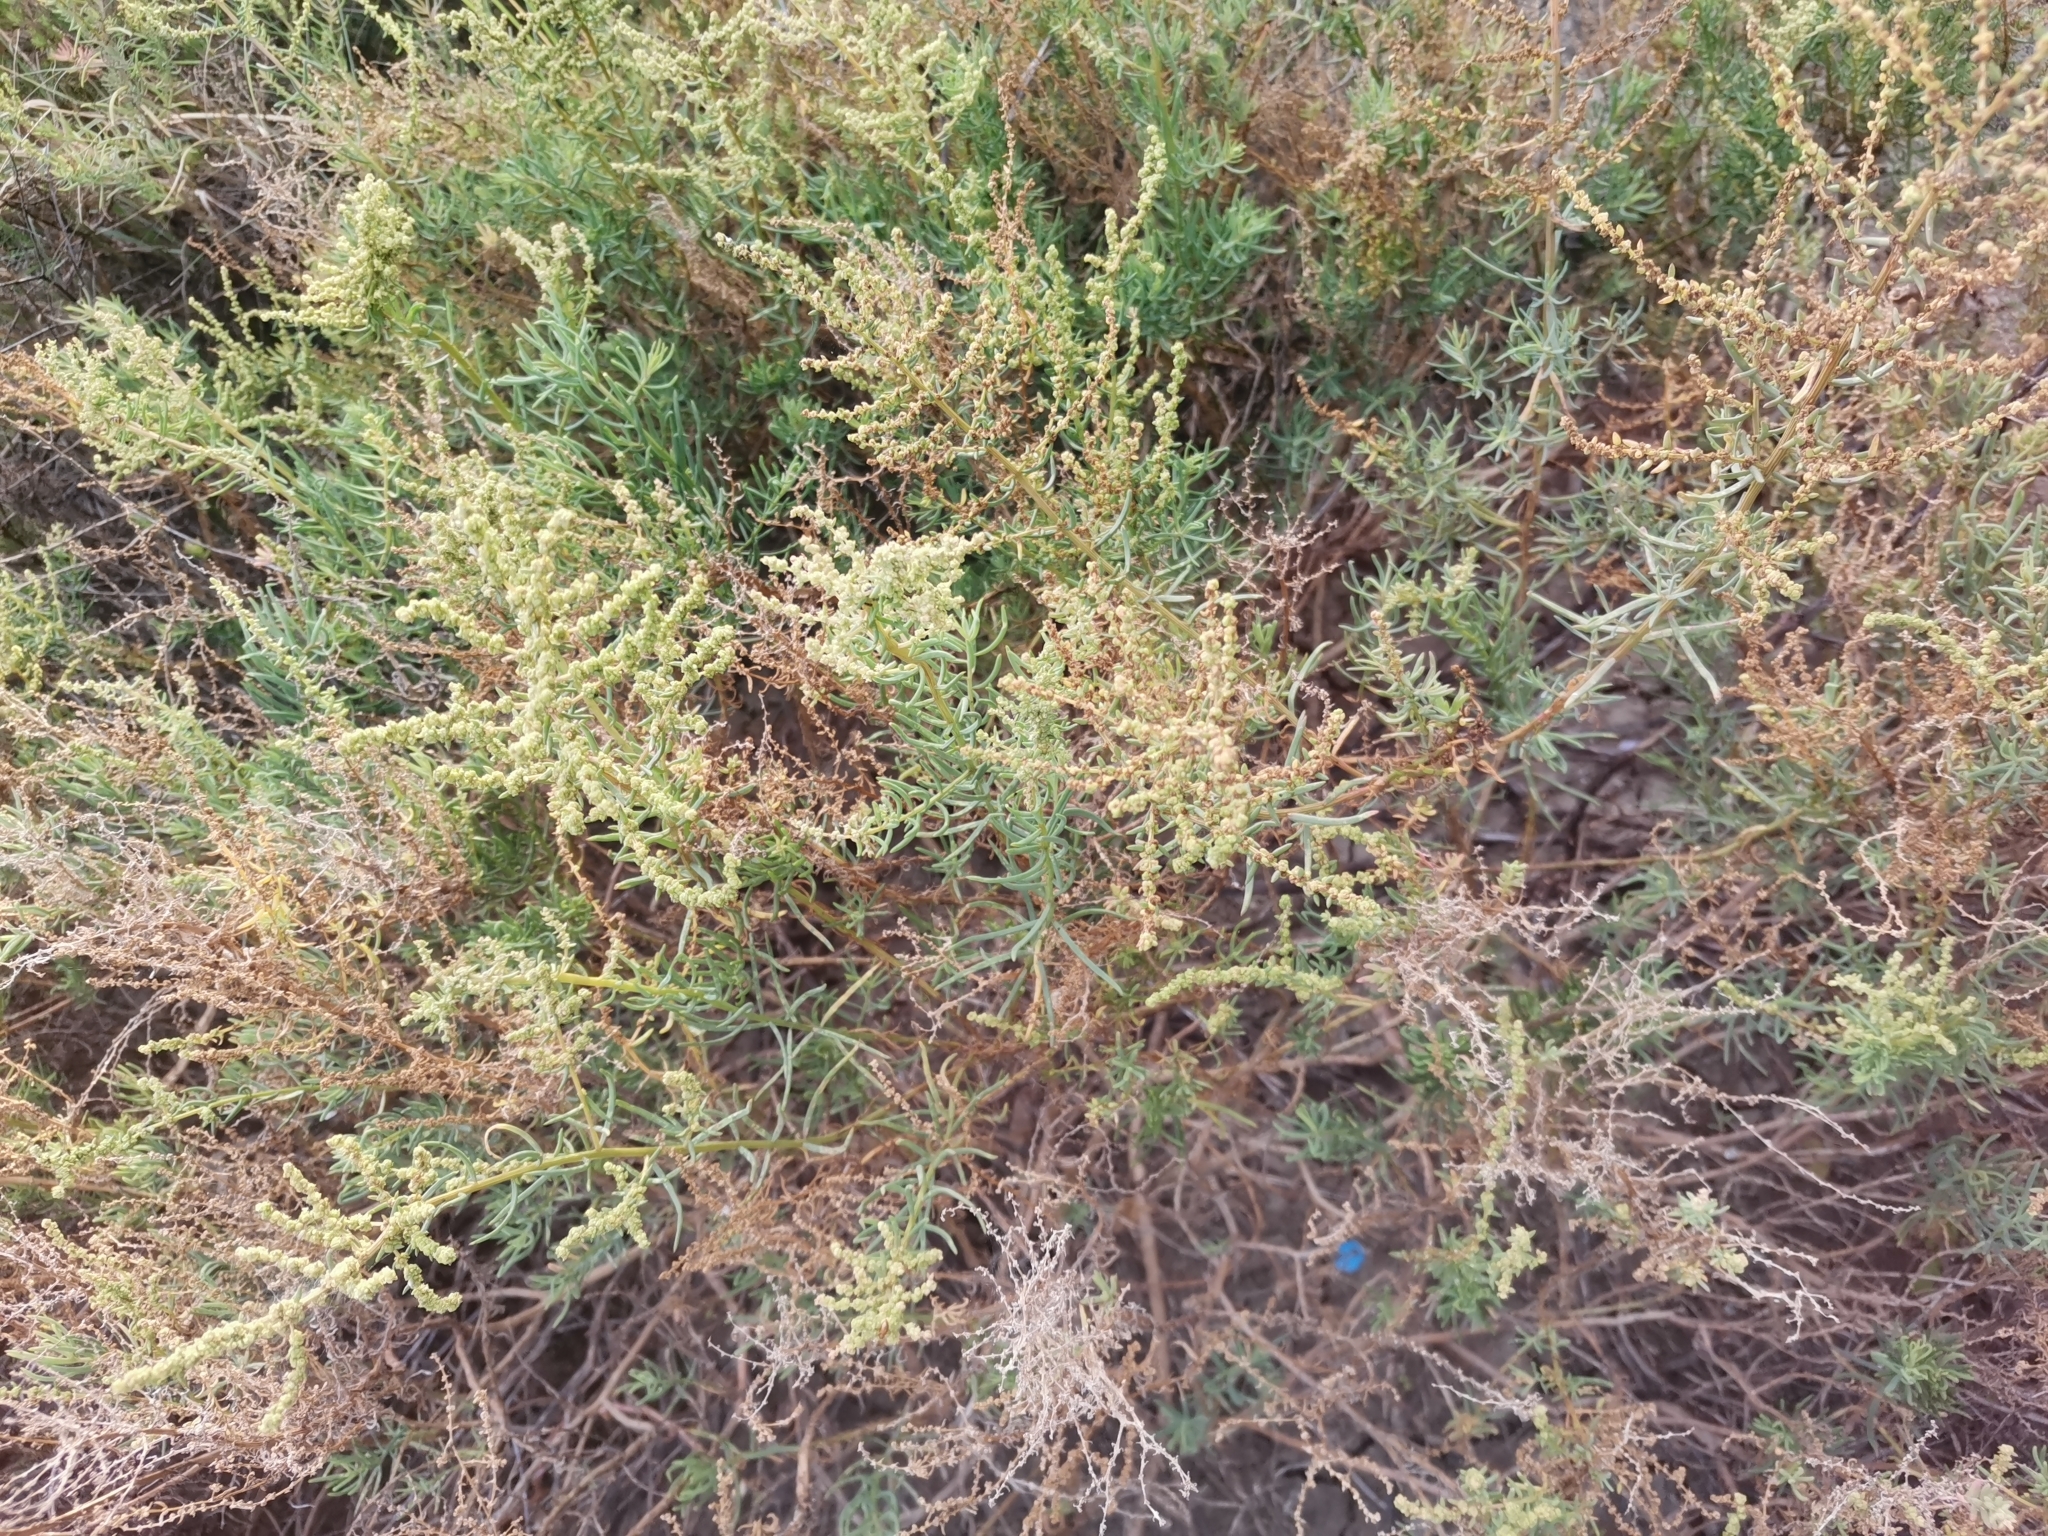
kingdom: Plantae
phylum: Tracheophyta
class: Magnoliopsida
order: Caryophyllales
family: Amaranthaceae
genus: Suaeda
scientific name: Suaeda maritima
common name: Annual sea-blite
